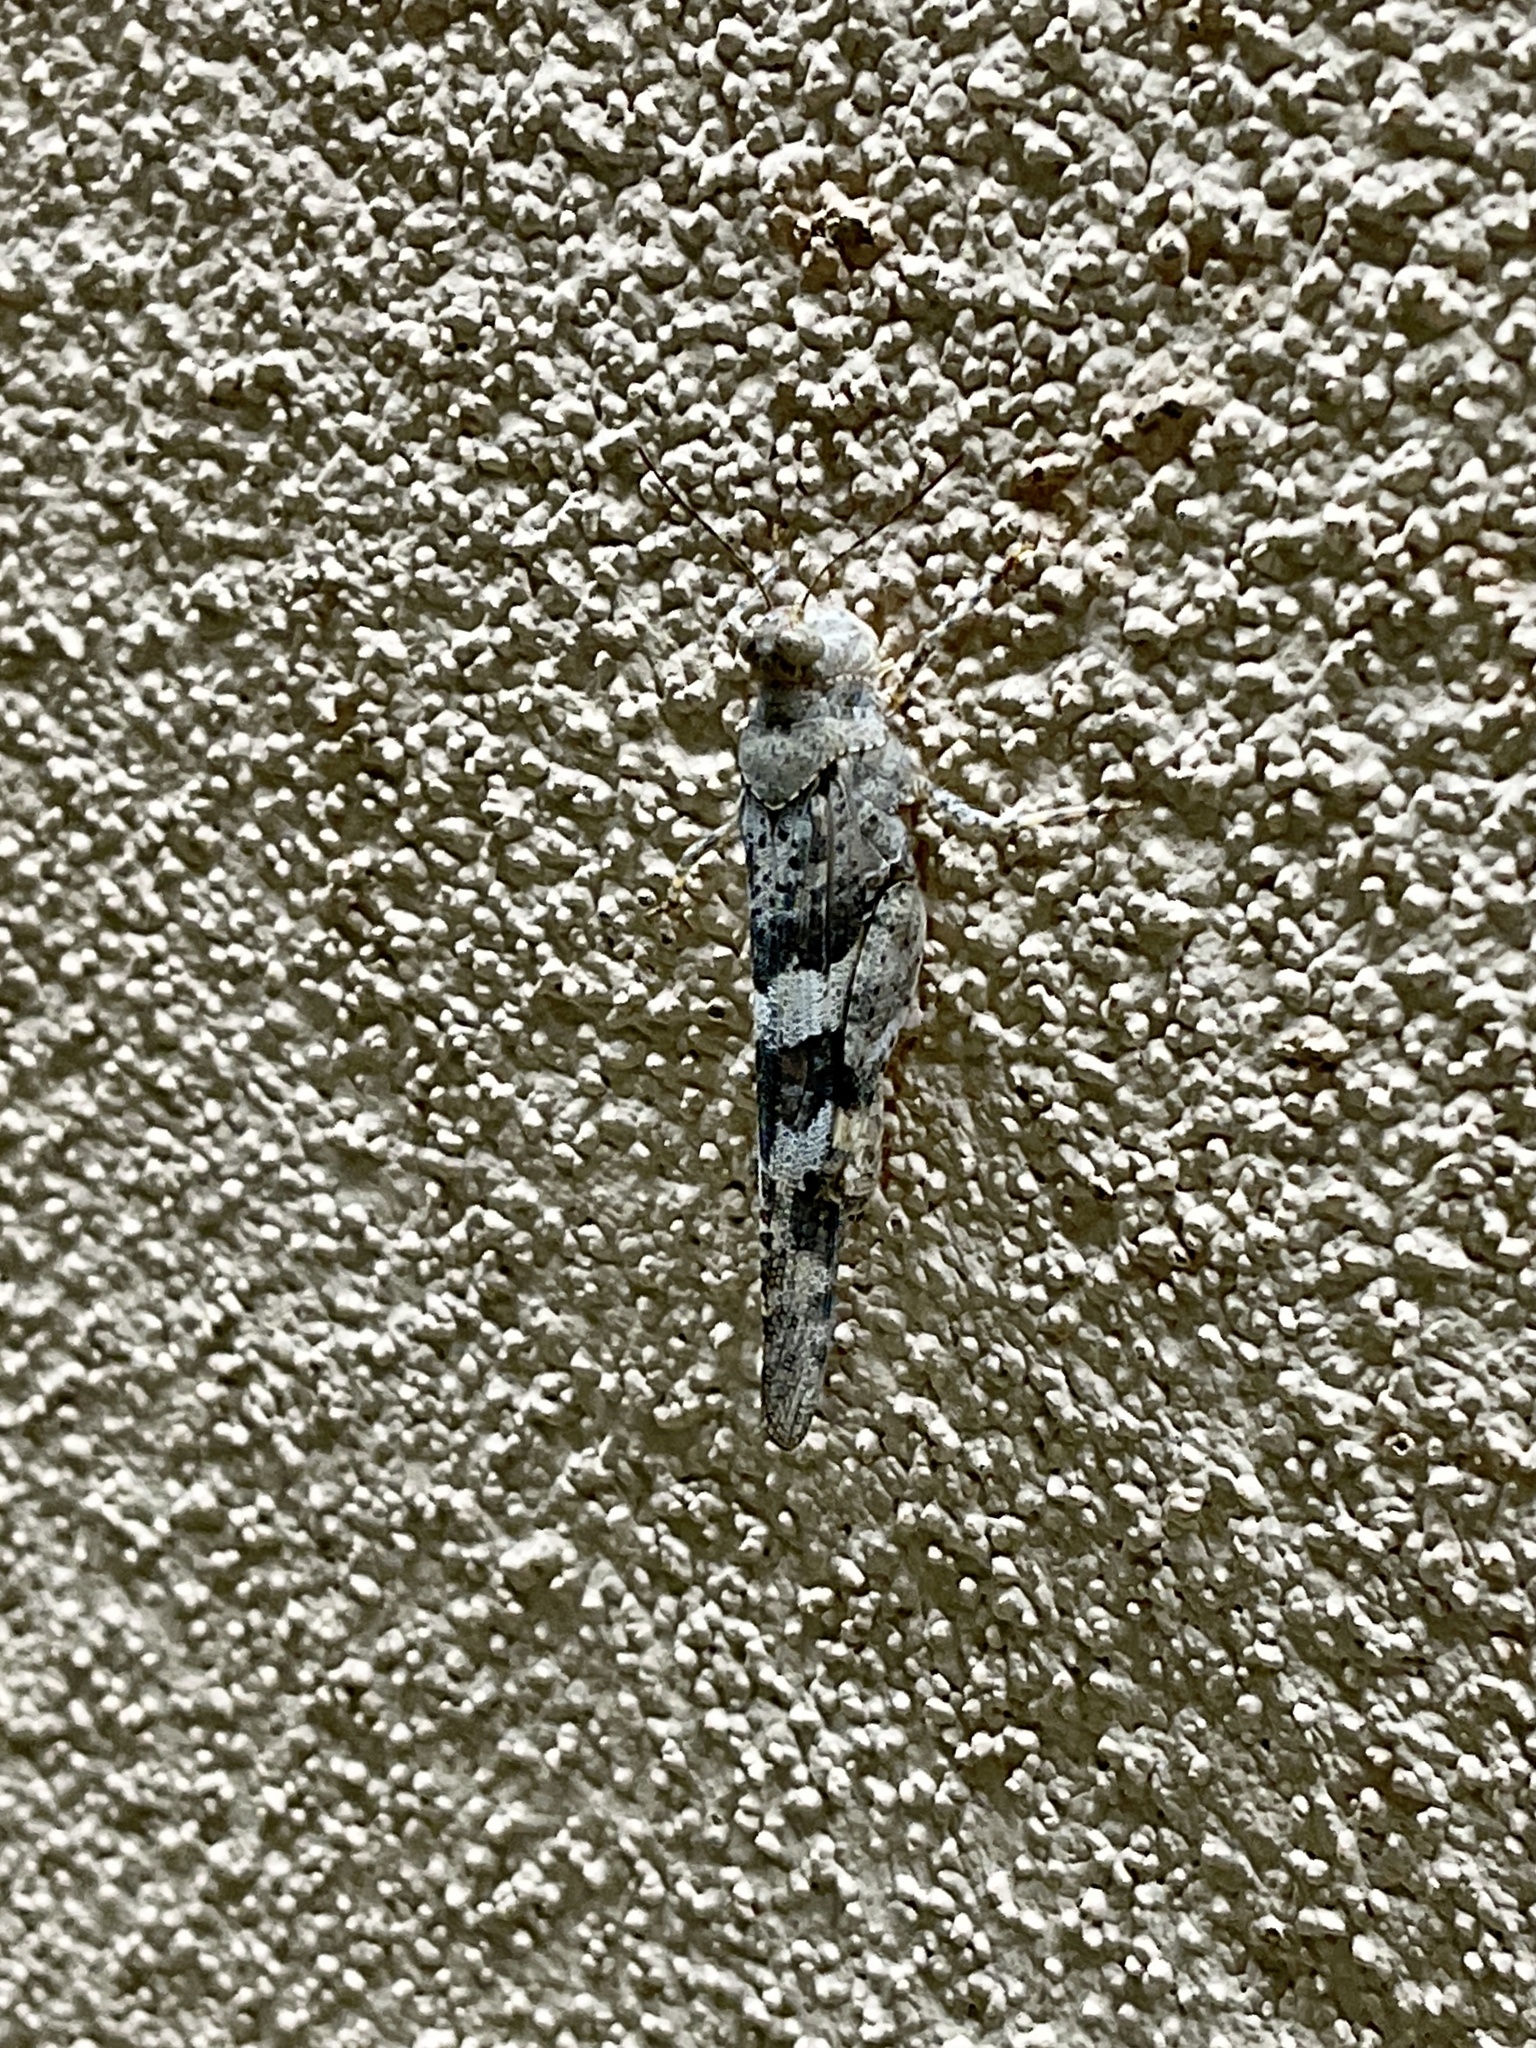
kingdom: Animalia
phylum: Arthropoda
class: Insecta
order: Orthoptera
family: Acrididae
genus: Trimerotropis
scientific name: Trimerotropis pallidipennis
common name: Pallid-winged grasshopper
